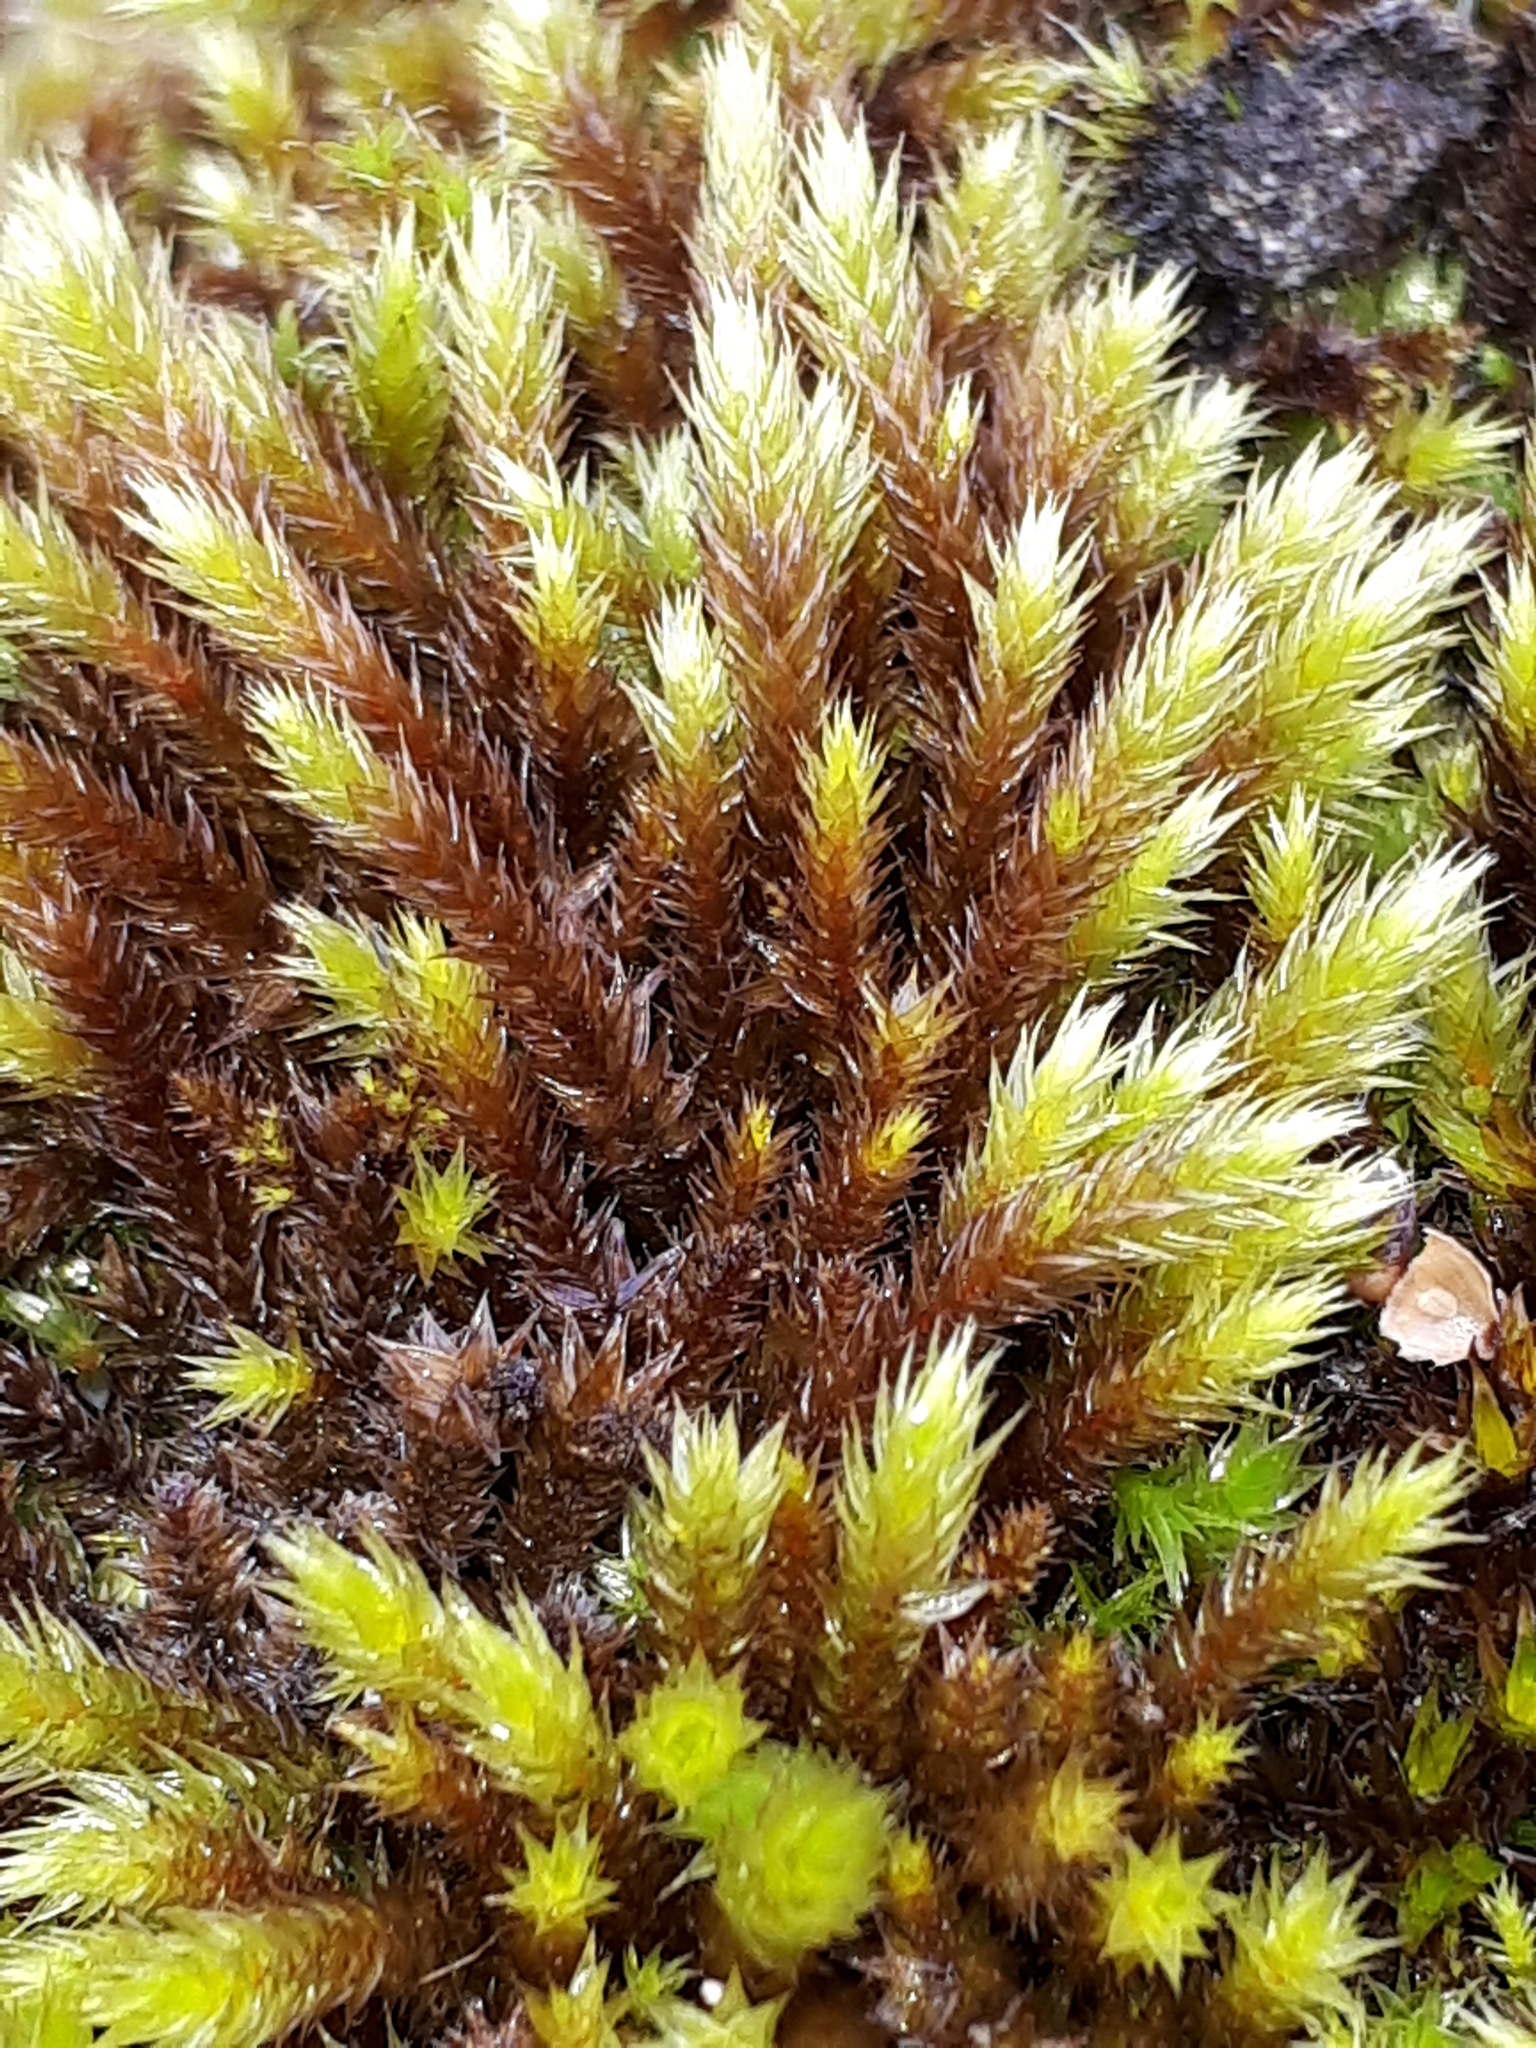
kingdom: Plantae
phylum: Bryophyta
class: Bryopsida
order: Hypnales
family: Leucodontaceae
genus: Leucodon
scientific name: Leucodon sciuroides
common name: Squirrel-tail moss
